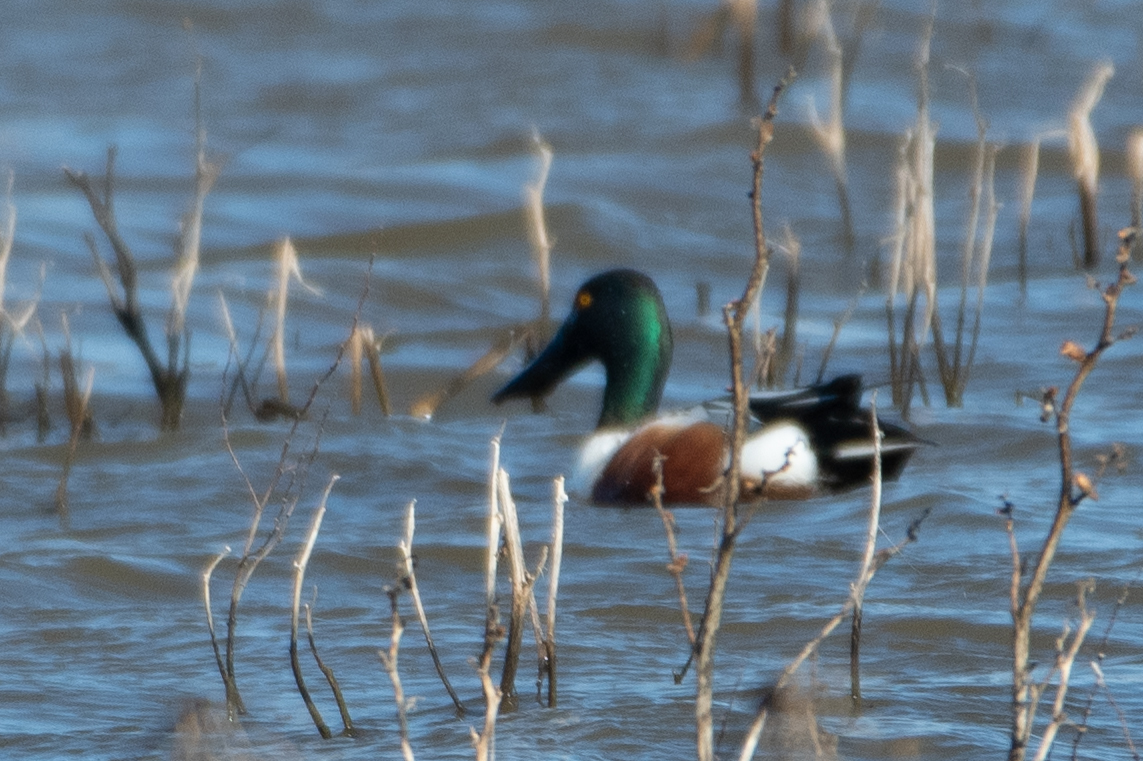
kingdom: Animalia
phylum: Chordata
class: Aves
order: Anseriformes
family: Anatidae
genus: Spatula
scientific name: Spatula clypeata
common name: Northern shoveler
